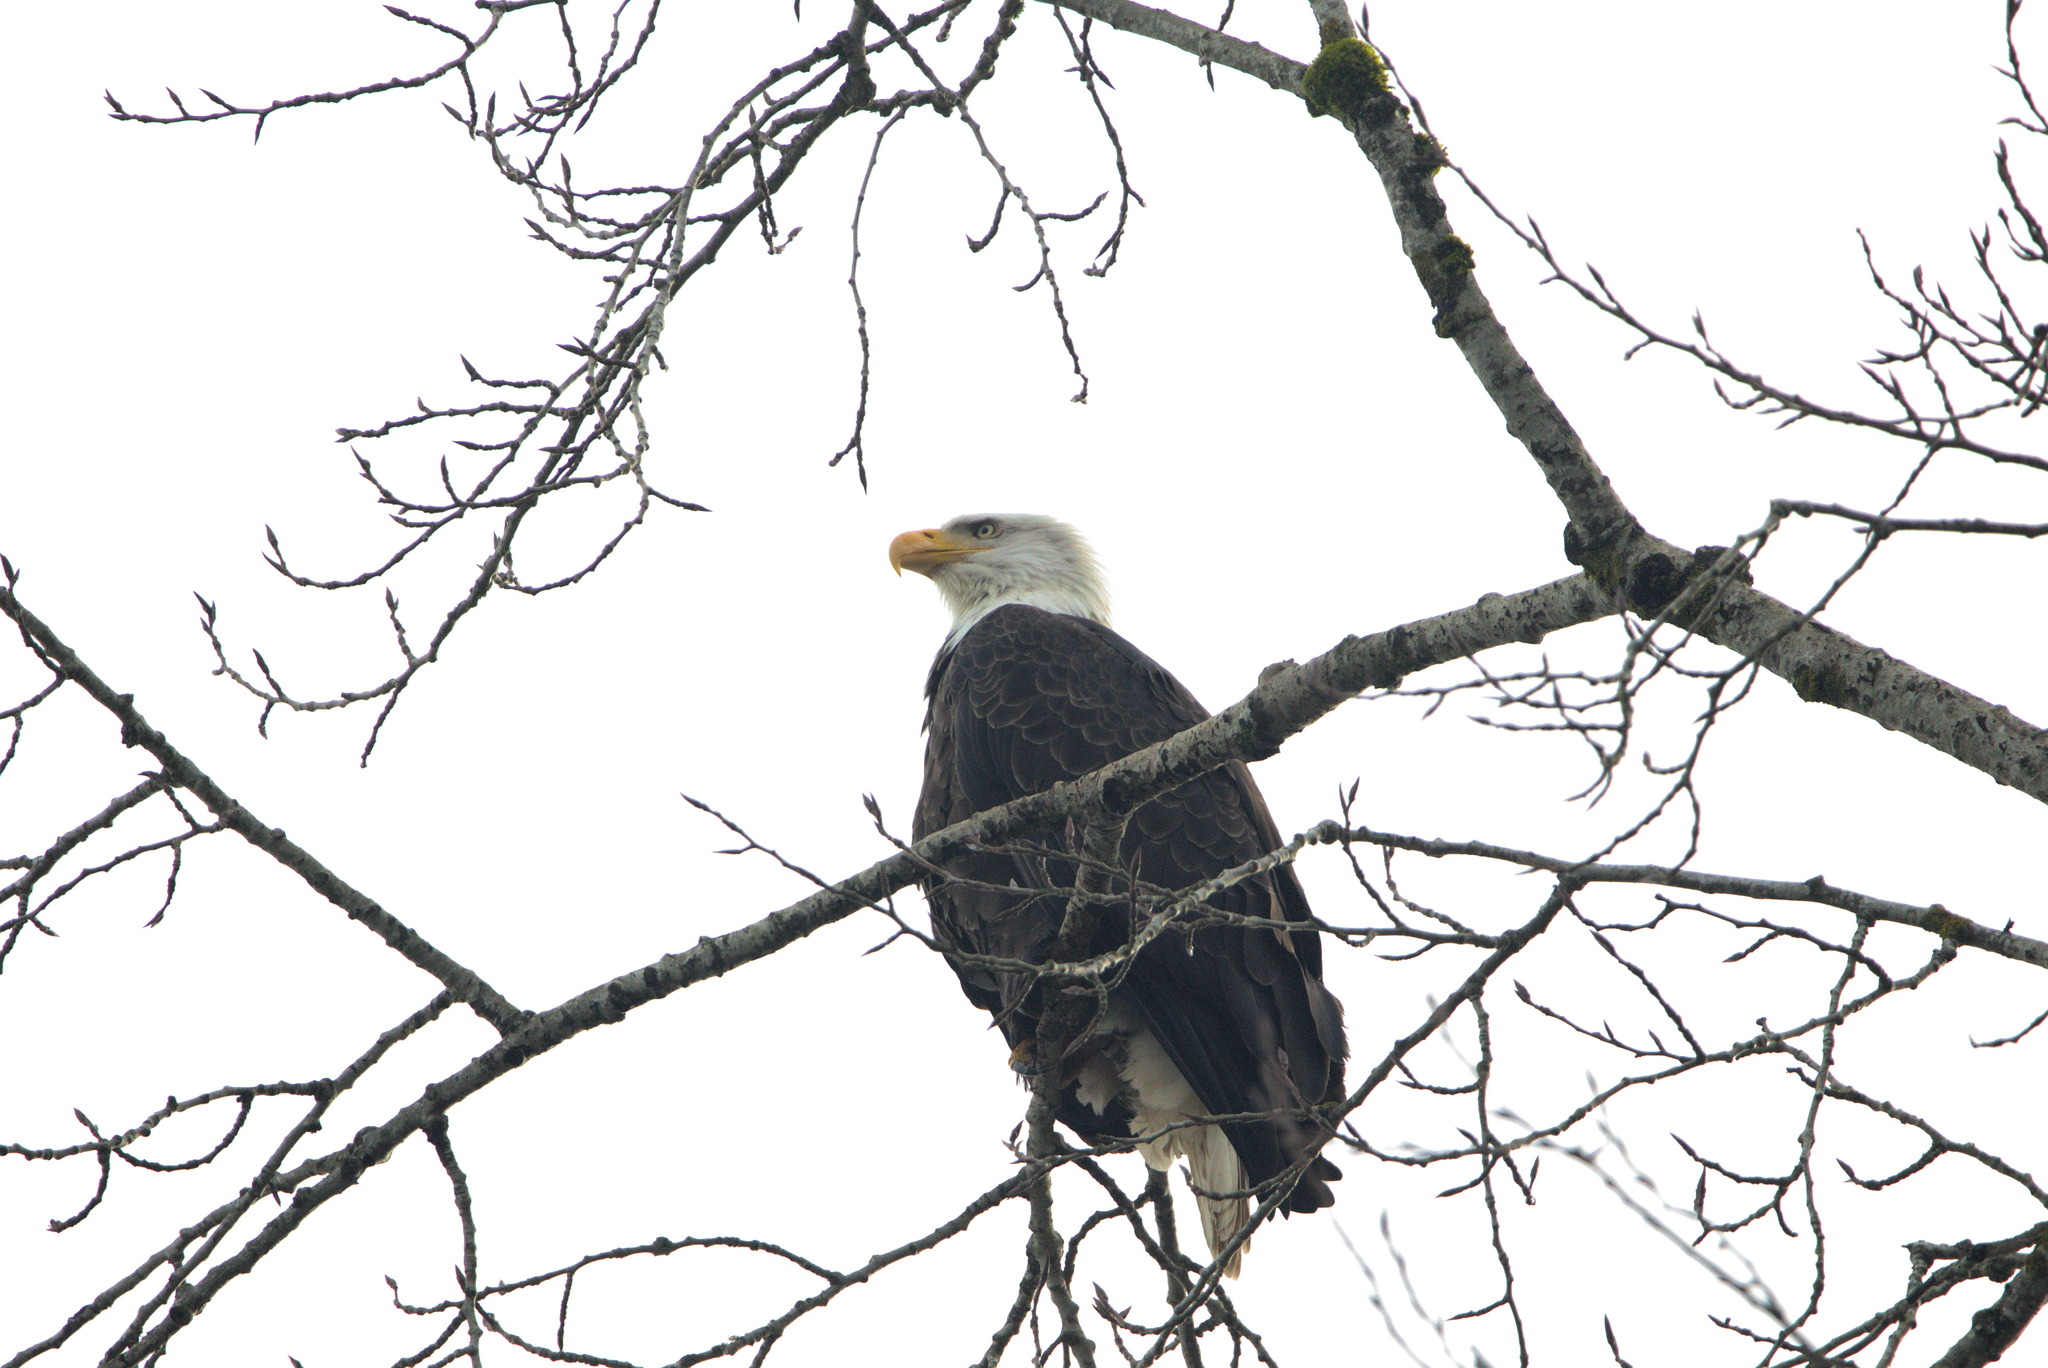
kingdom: Animalia
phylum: Chordata
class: Aves
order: Accipitriformes
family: Accipitridae
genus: Haliaeetus
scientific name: Haliaeetus leucocephalus
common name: Bald eagle
